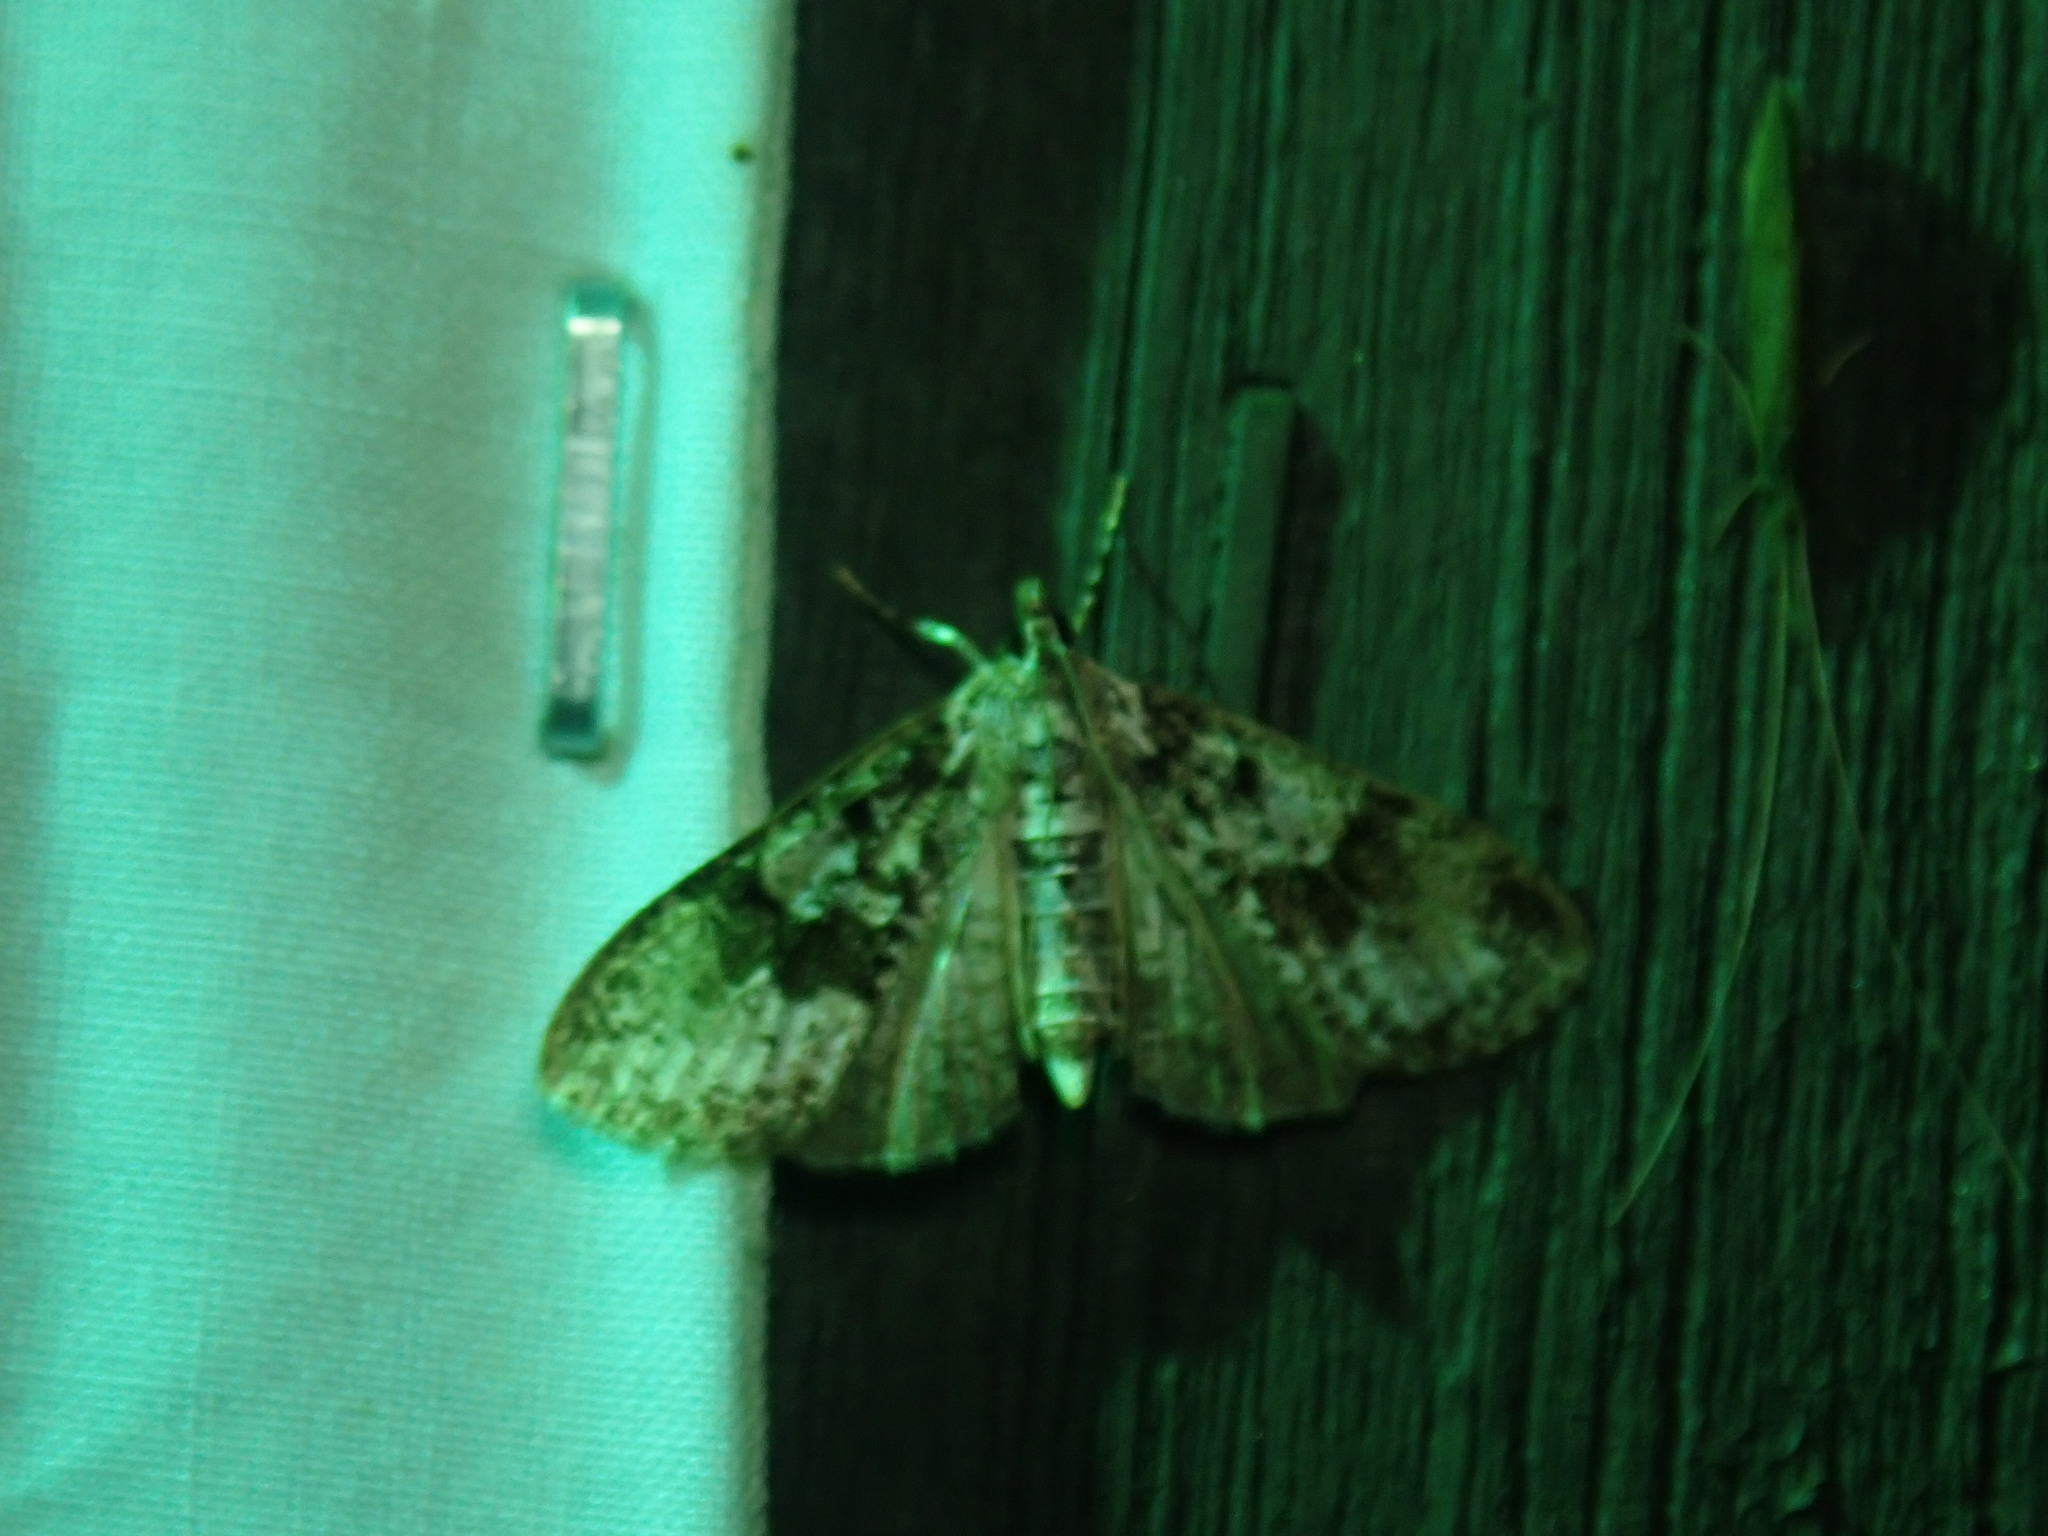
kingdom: Animalia
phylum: Arthropoda
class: Insecta
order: Lepidoptera
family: Crambidae
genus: Palpita
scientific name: Palpita magniferalis
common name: Splendid palpita moth
